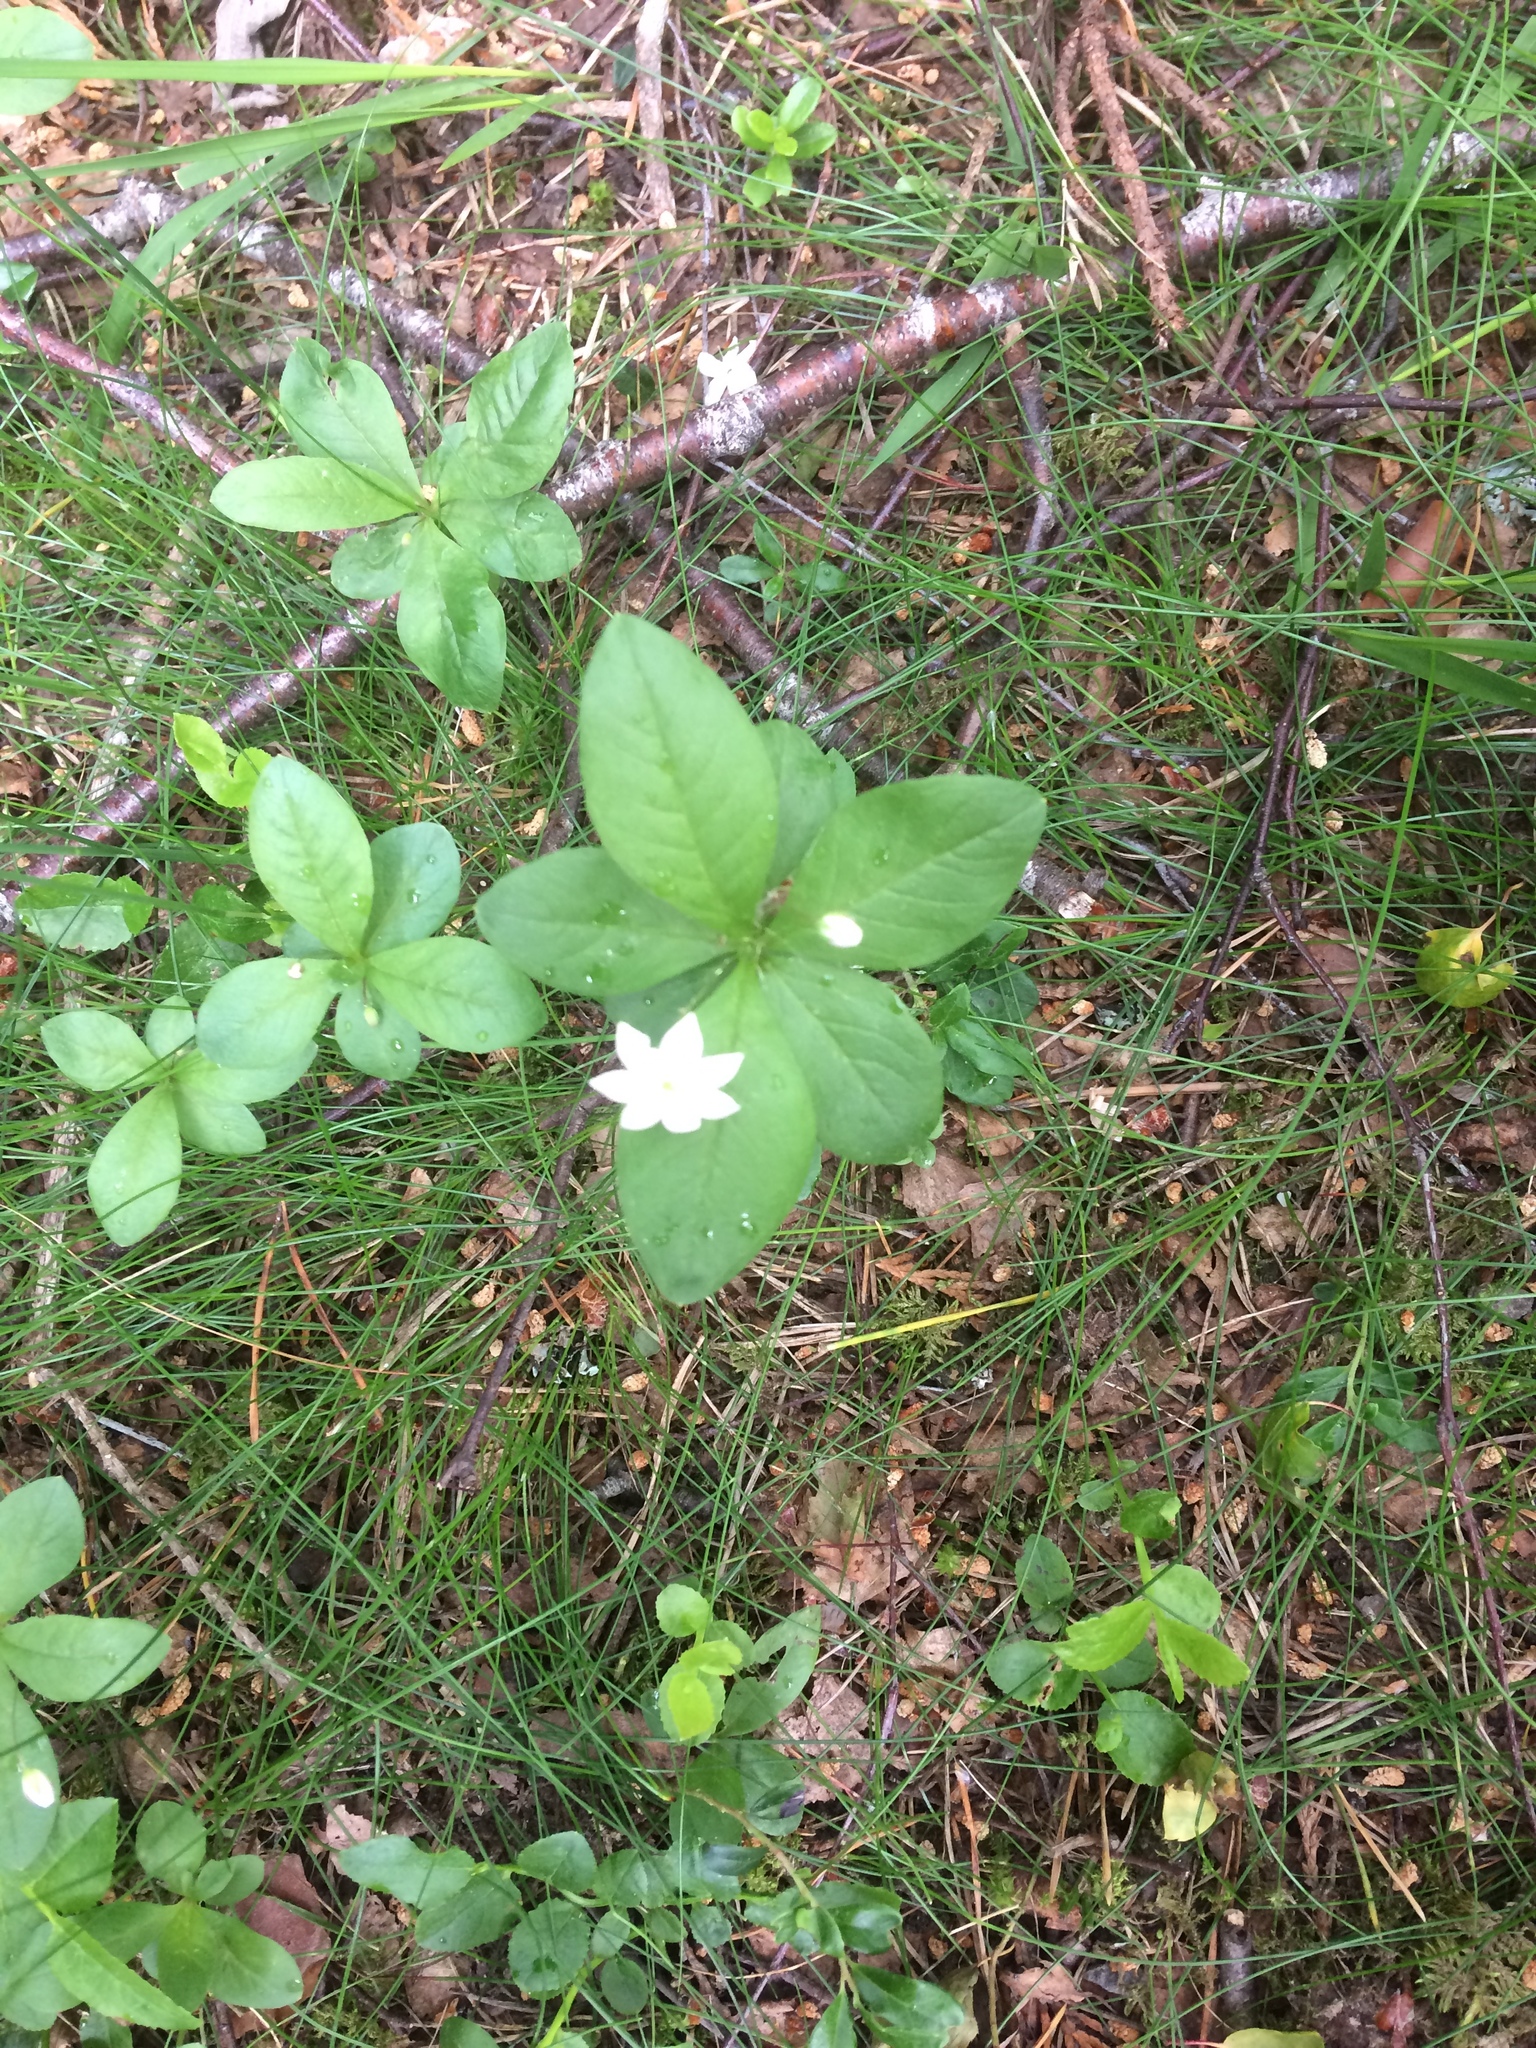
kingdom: Plantae
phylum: Tracheophyta
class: Magnoliopsida
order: Ericales
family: Primulaceae
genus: Lysimachia
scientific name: Lysimachia europaea
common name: Arctic starflower
